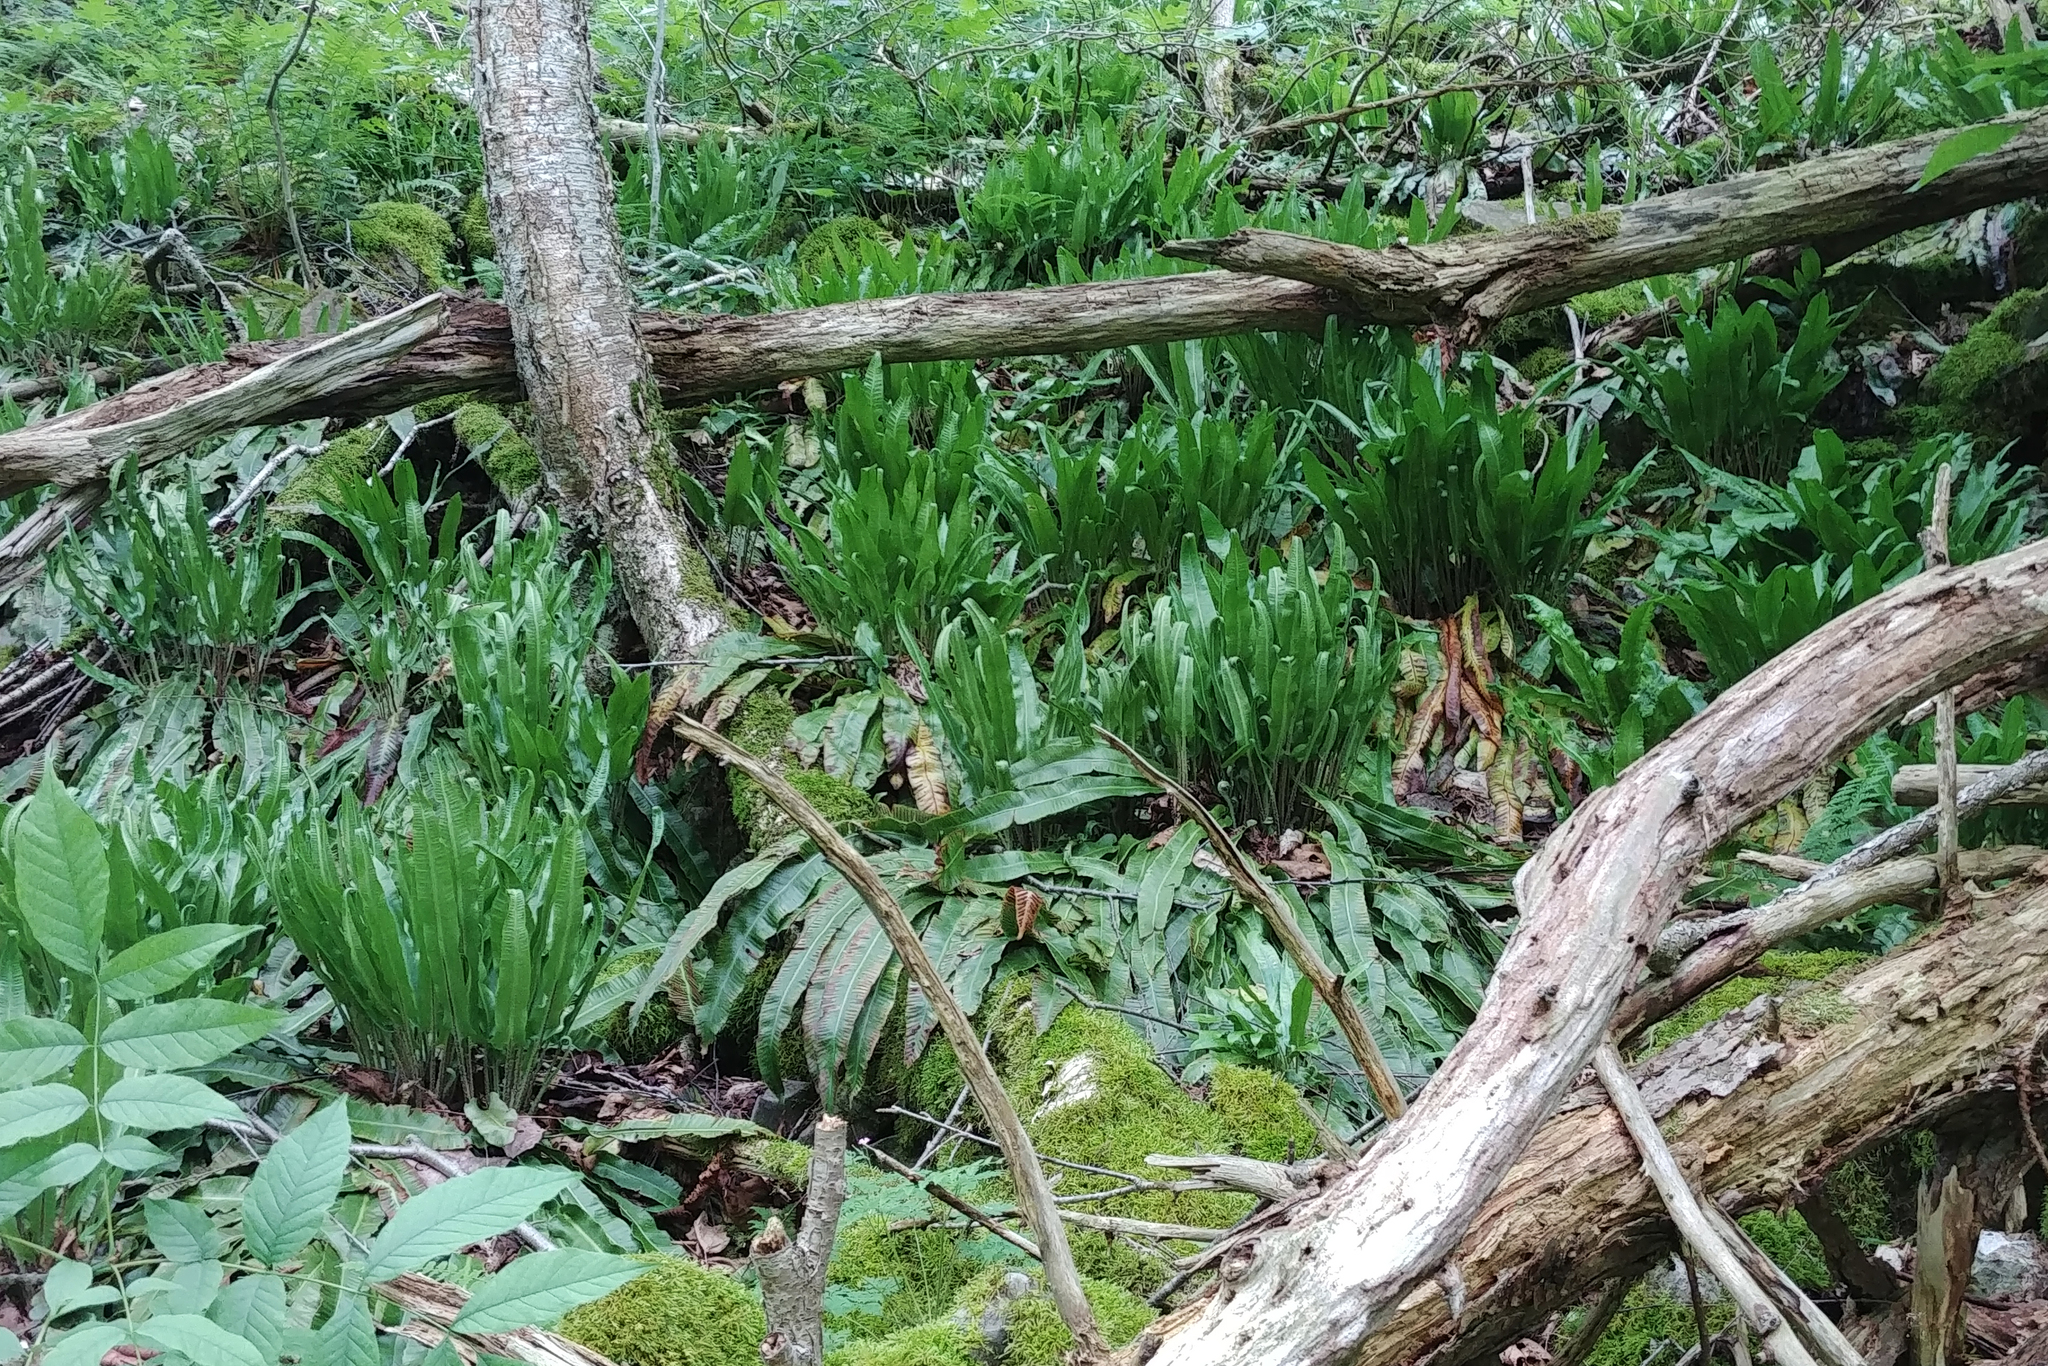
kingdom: Plantae
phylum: Tracheophyta
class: Polypodiopsida
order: Polypodiales
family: Aspleniaceae
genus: Asplenium
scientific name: Asplenium scolopendrium
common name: Hart's-tongue fern
